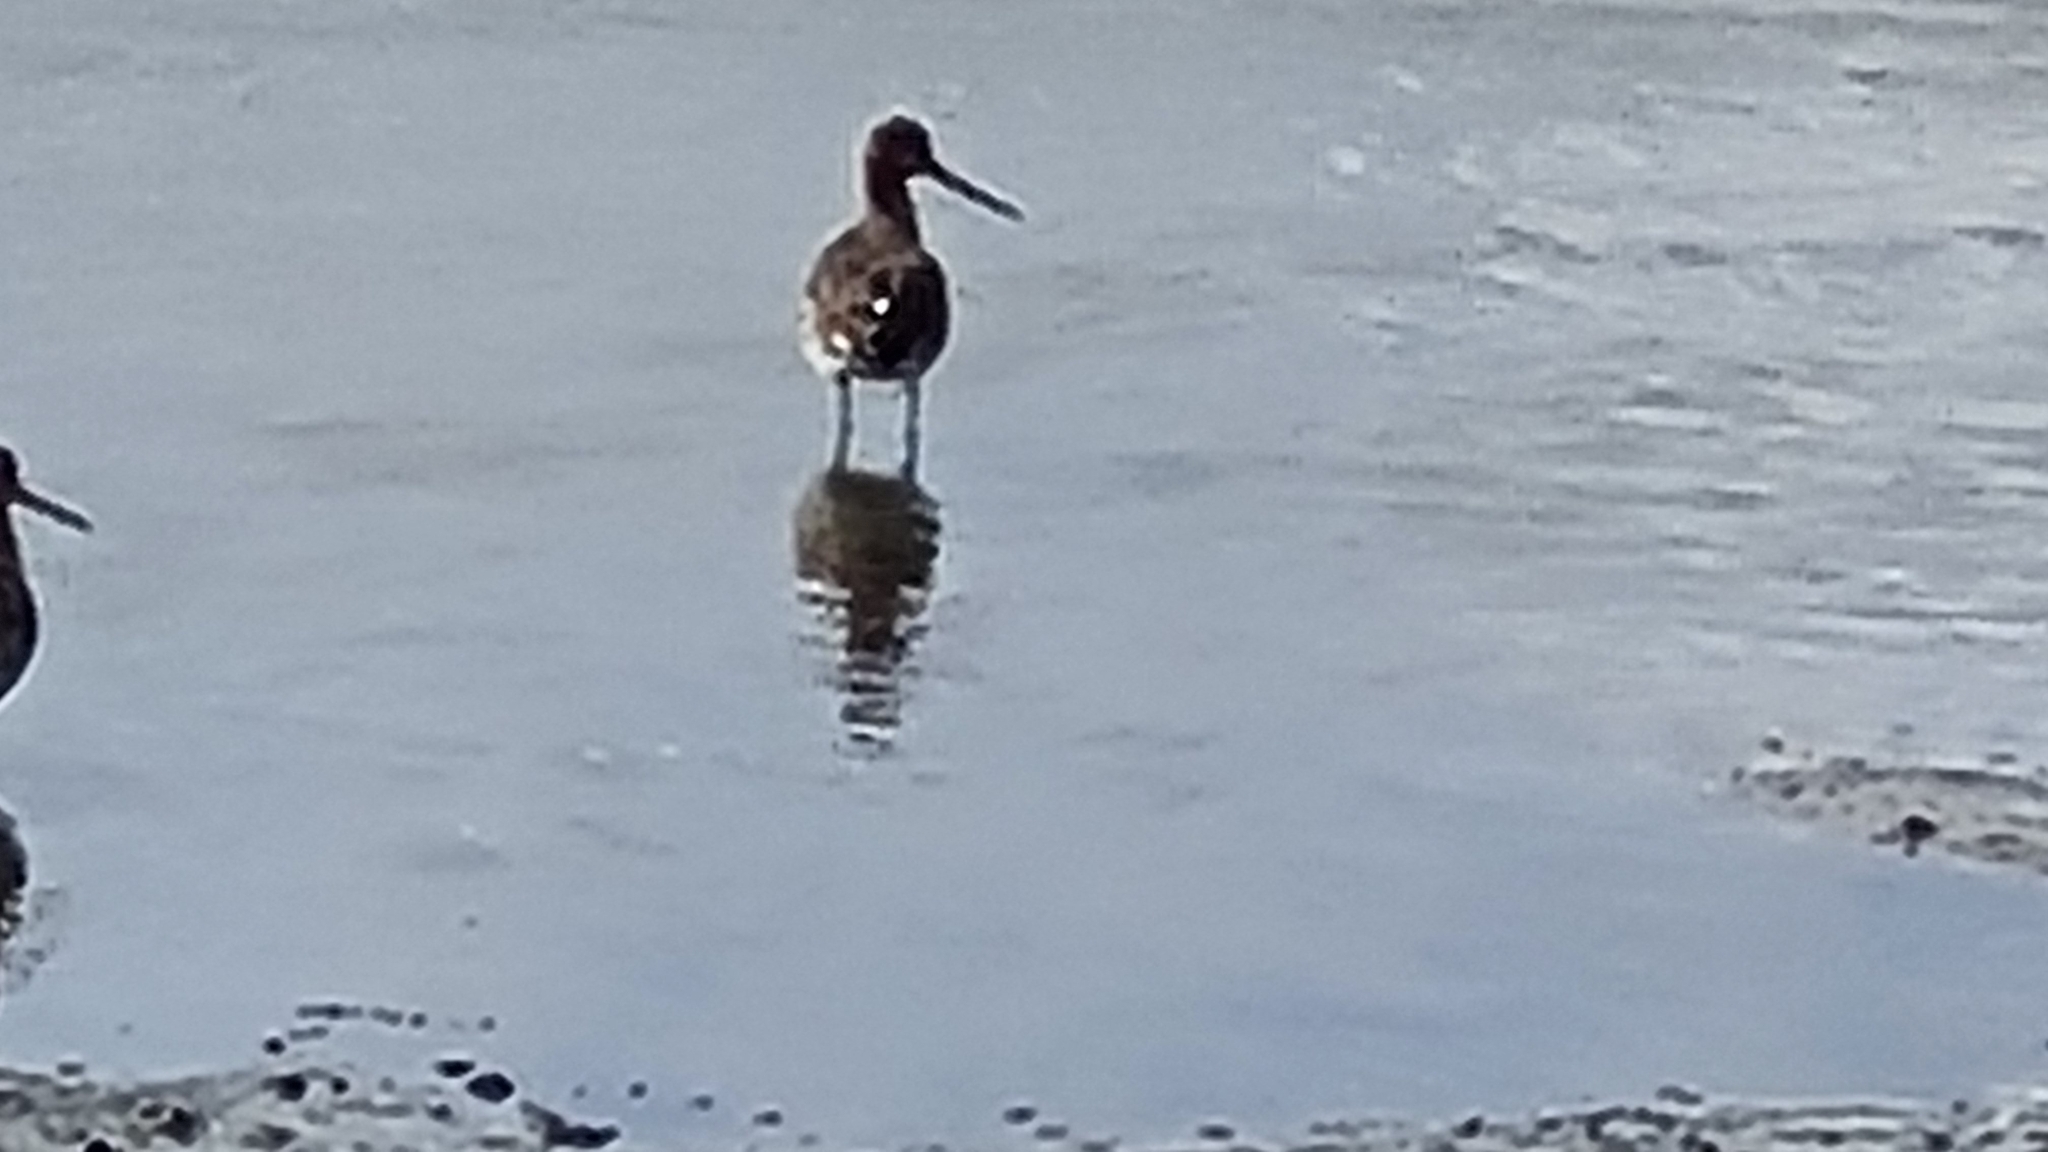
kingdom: Animalia
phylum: Chordata
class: Aves
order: Charadriiformes
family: Scolopacidae
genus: Limosa
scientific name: Limosa limosa
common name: Black-tailed godwit
